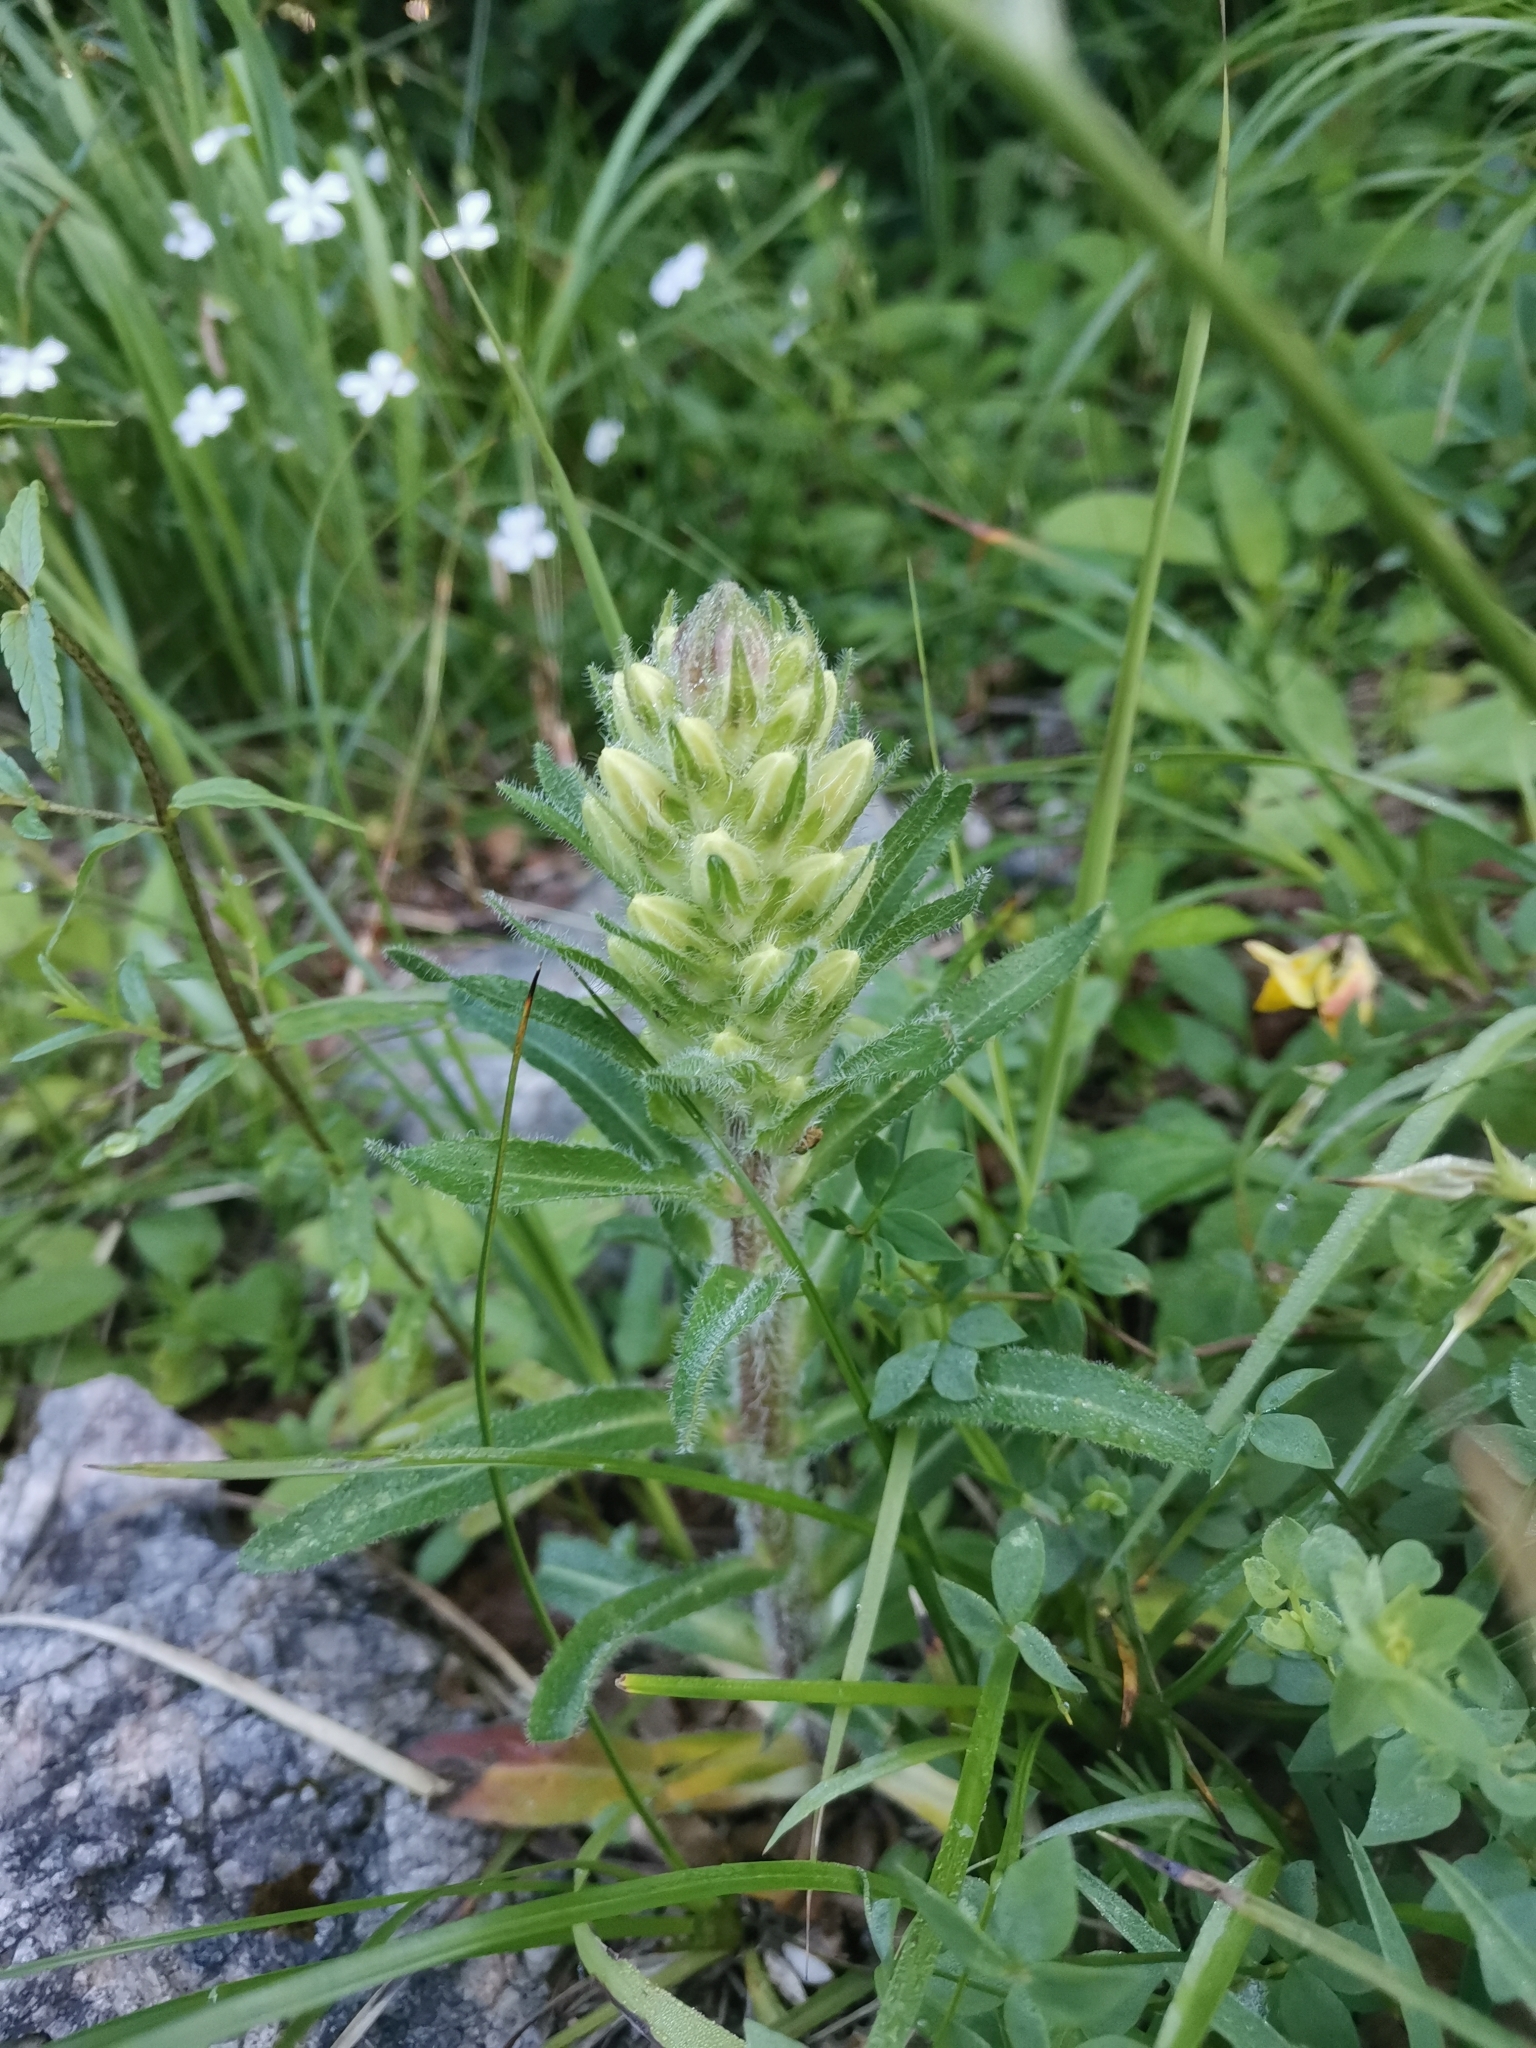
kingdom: Plantae
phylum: Tracheophyta
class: Magnoliopsida
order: Asterales
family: Campanulaceae
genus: Campanula
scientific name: Campanula thyrsoides
